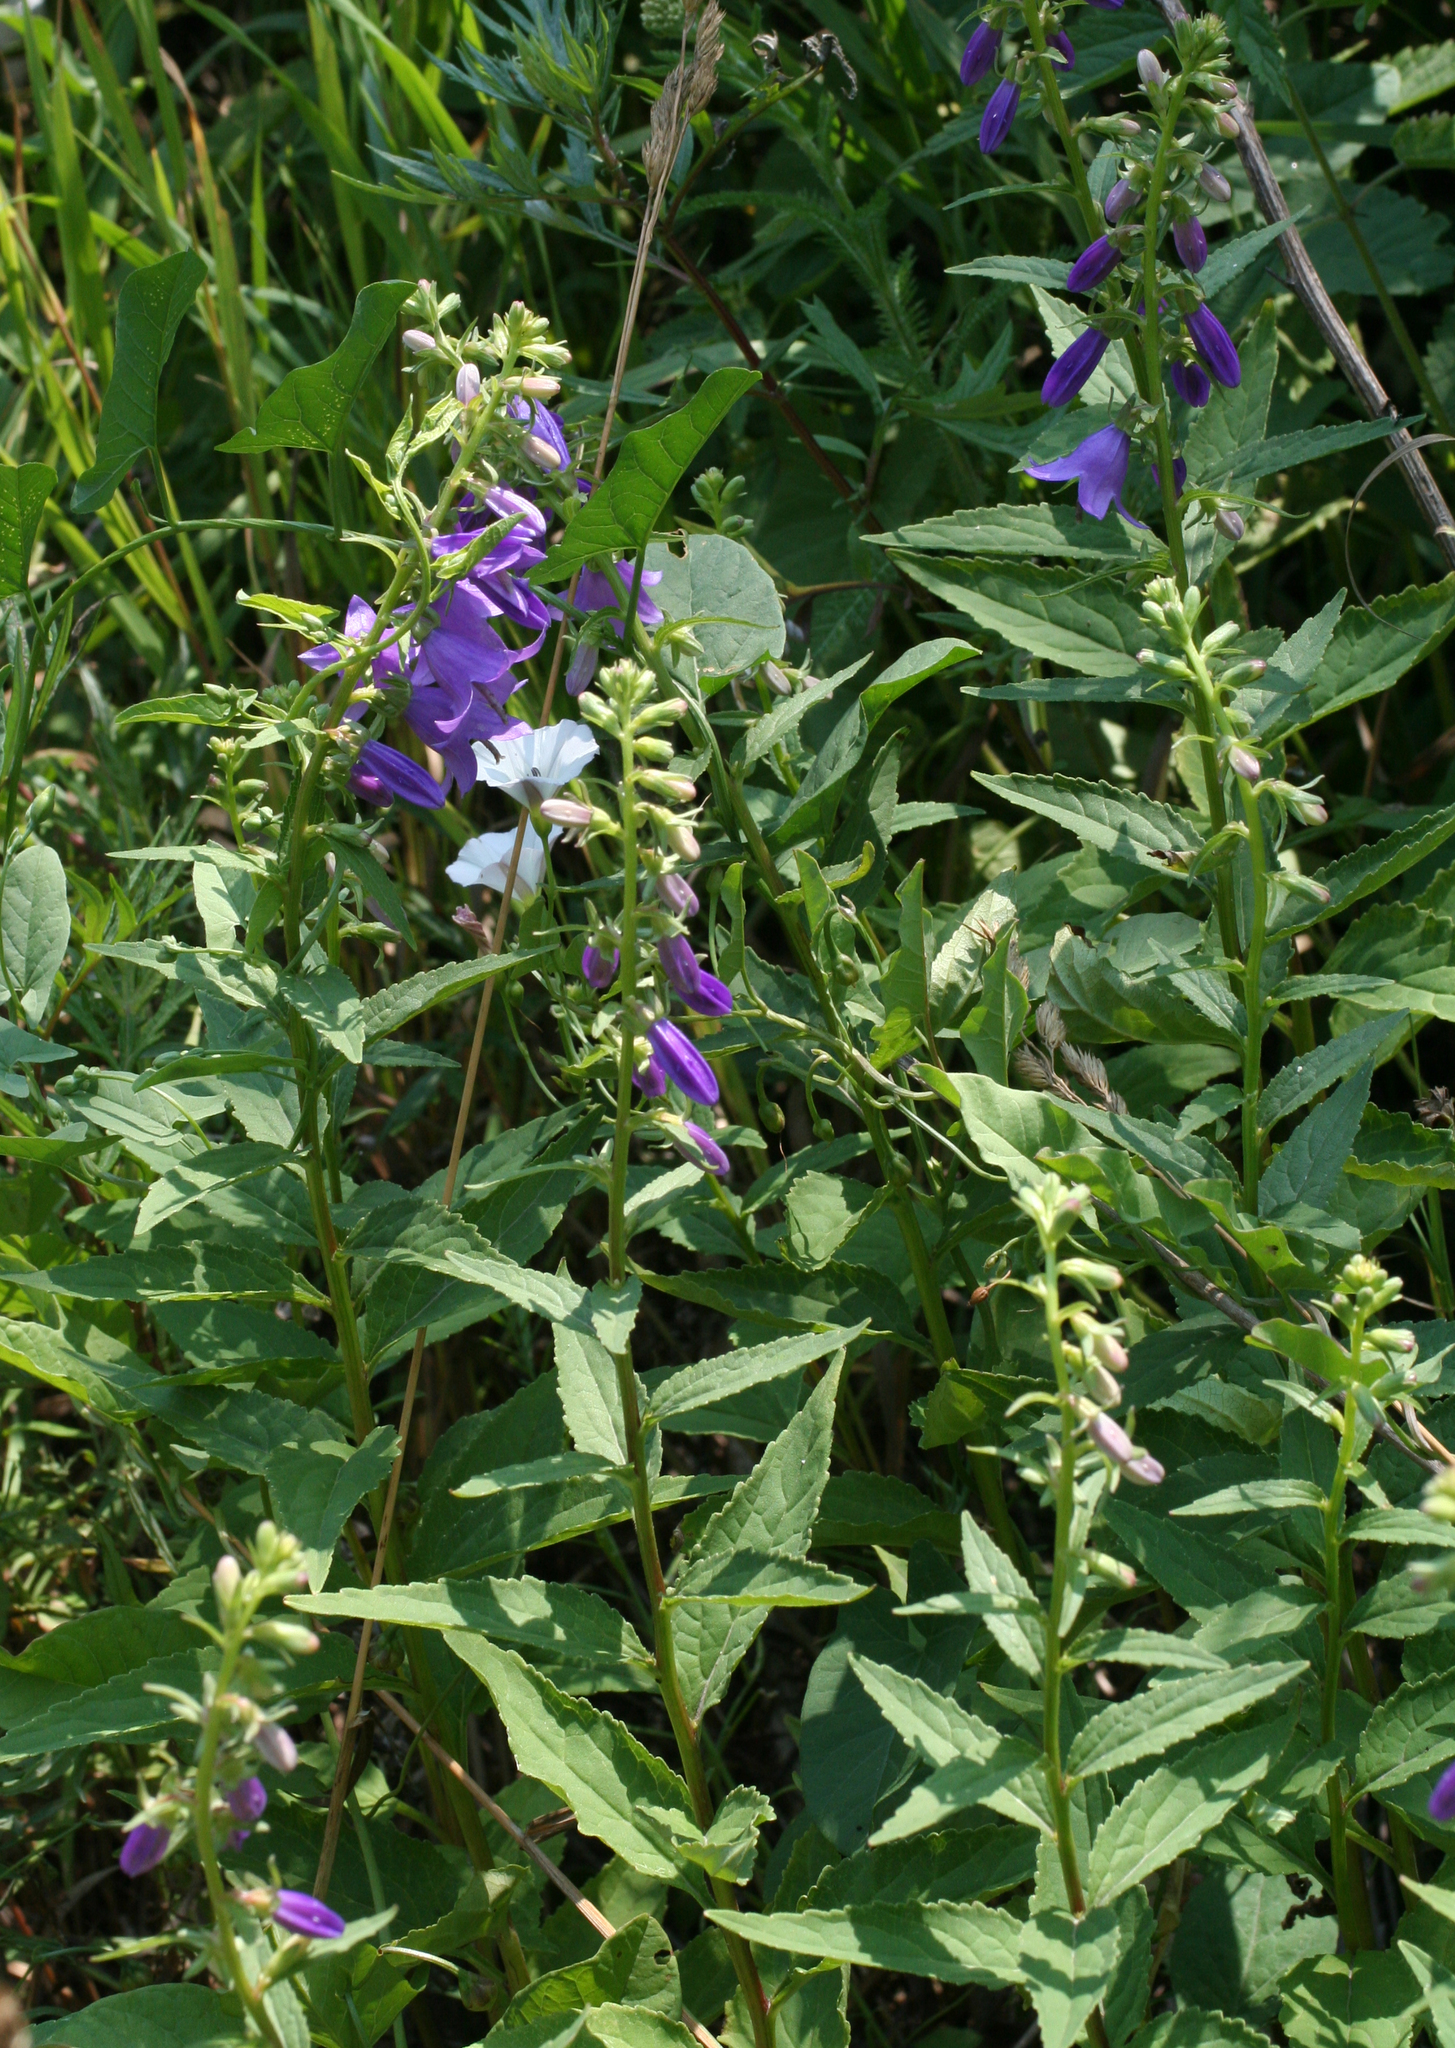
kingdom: Plantae
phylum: Tracheophyta
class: Magnoliopsida
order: Asterales
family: Campanulaceae
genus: Campanula
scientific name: Campanula rapunculoides
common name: Creeping bellflower
